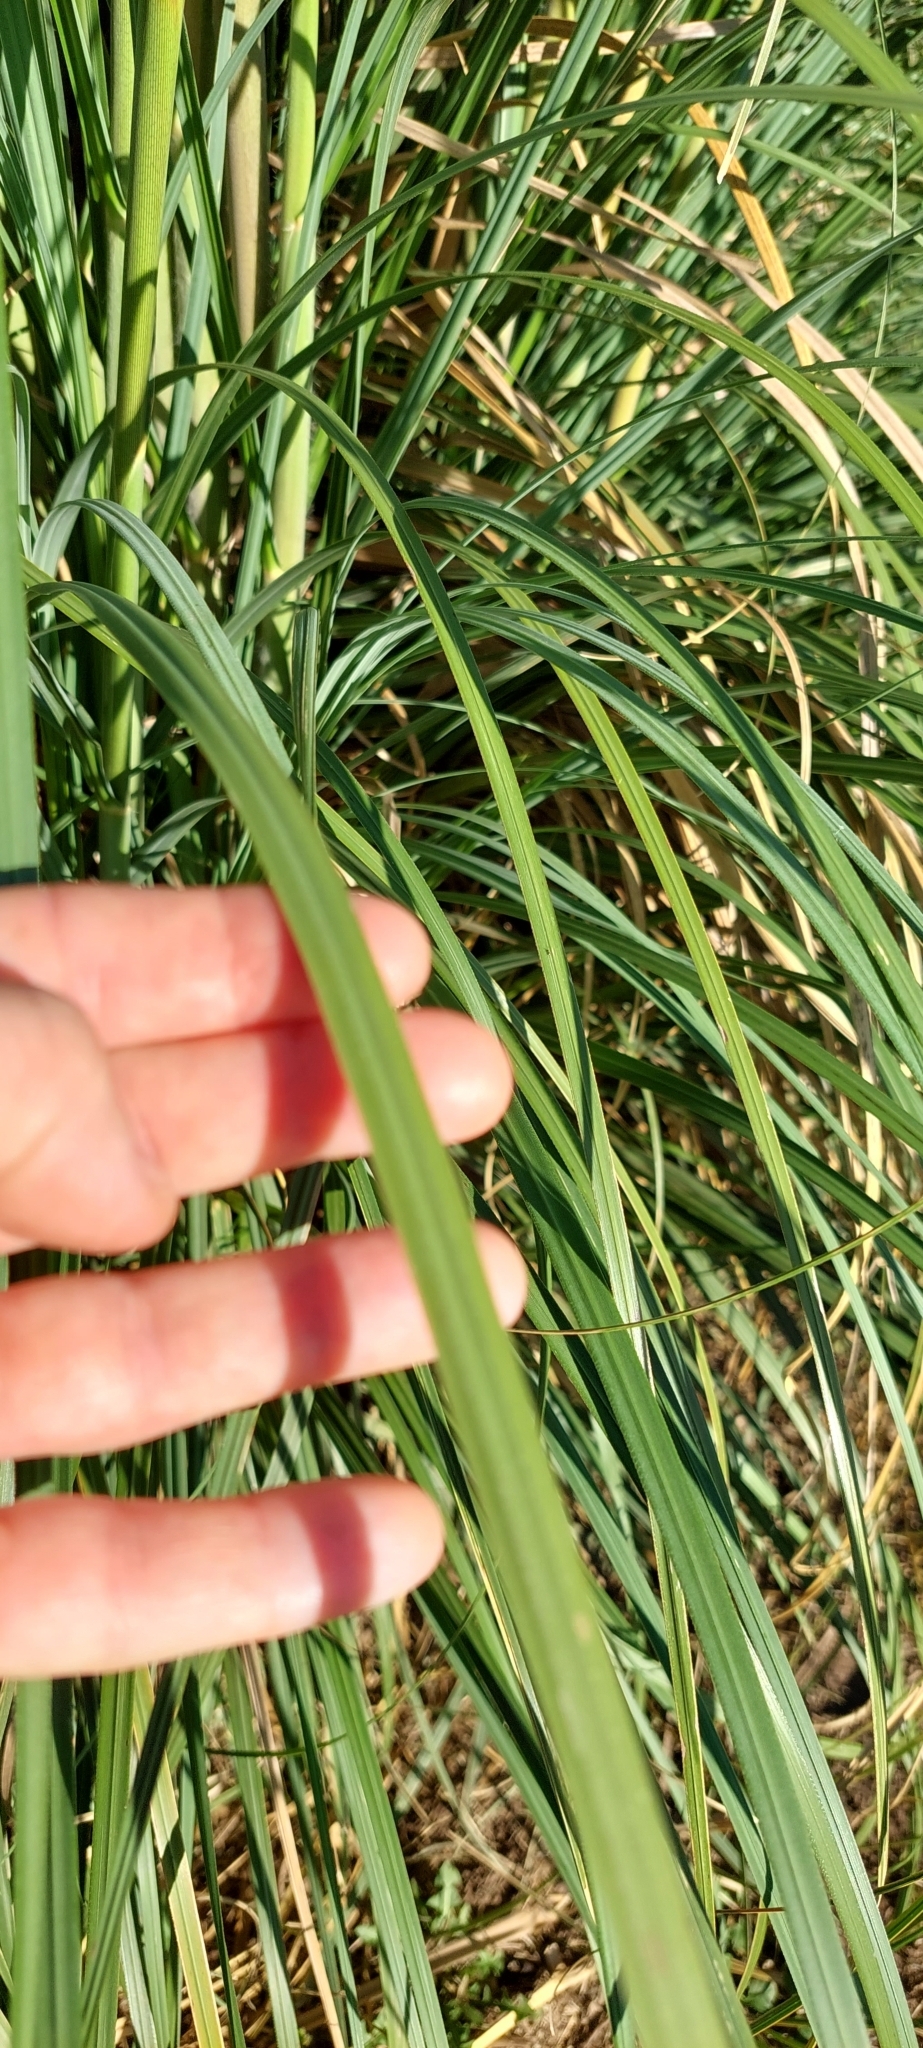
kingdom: Plantae
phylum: Tracheophyta
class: Liliopsida
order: Poales
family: Poaceae
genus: Cortaderia
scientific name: Cortaderia selloana
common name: Uruguayan pampas grass
